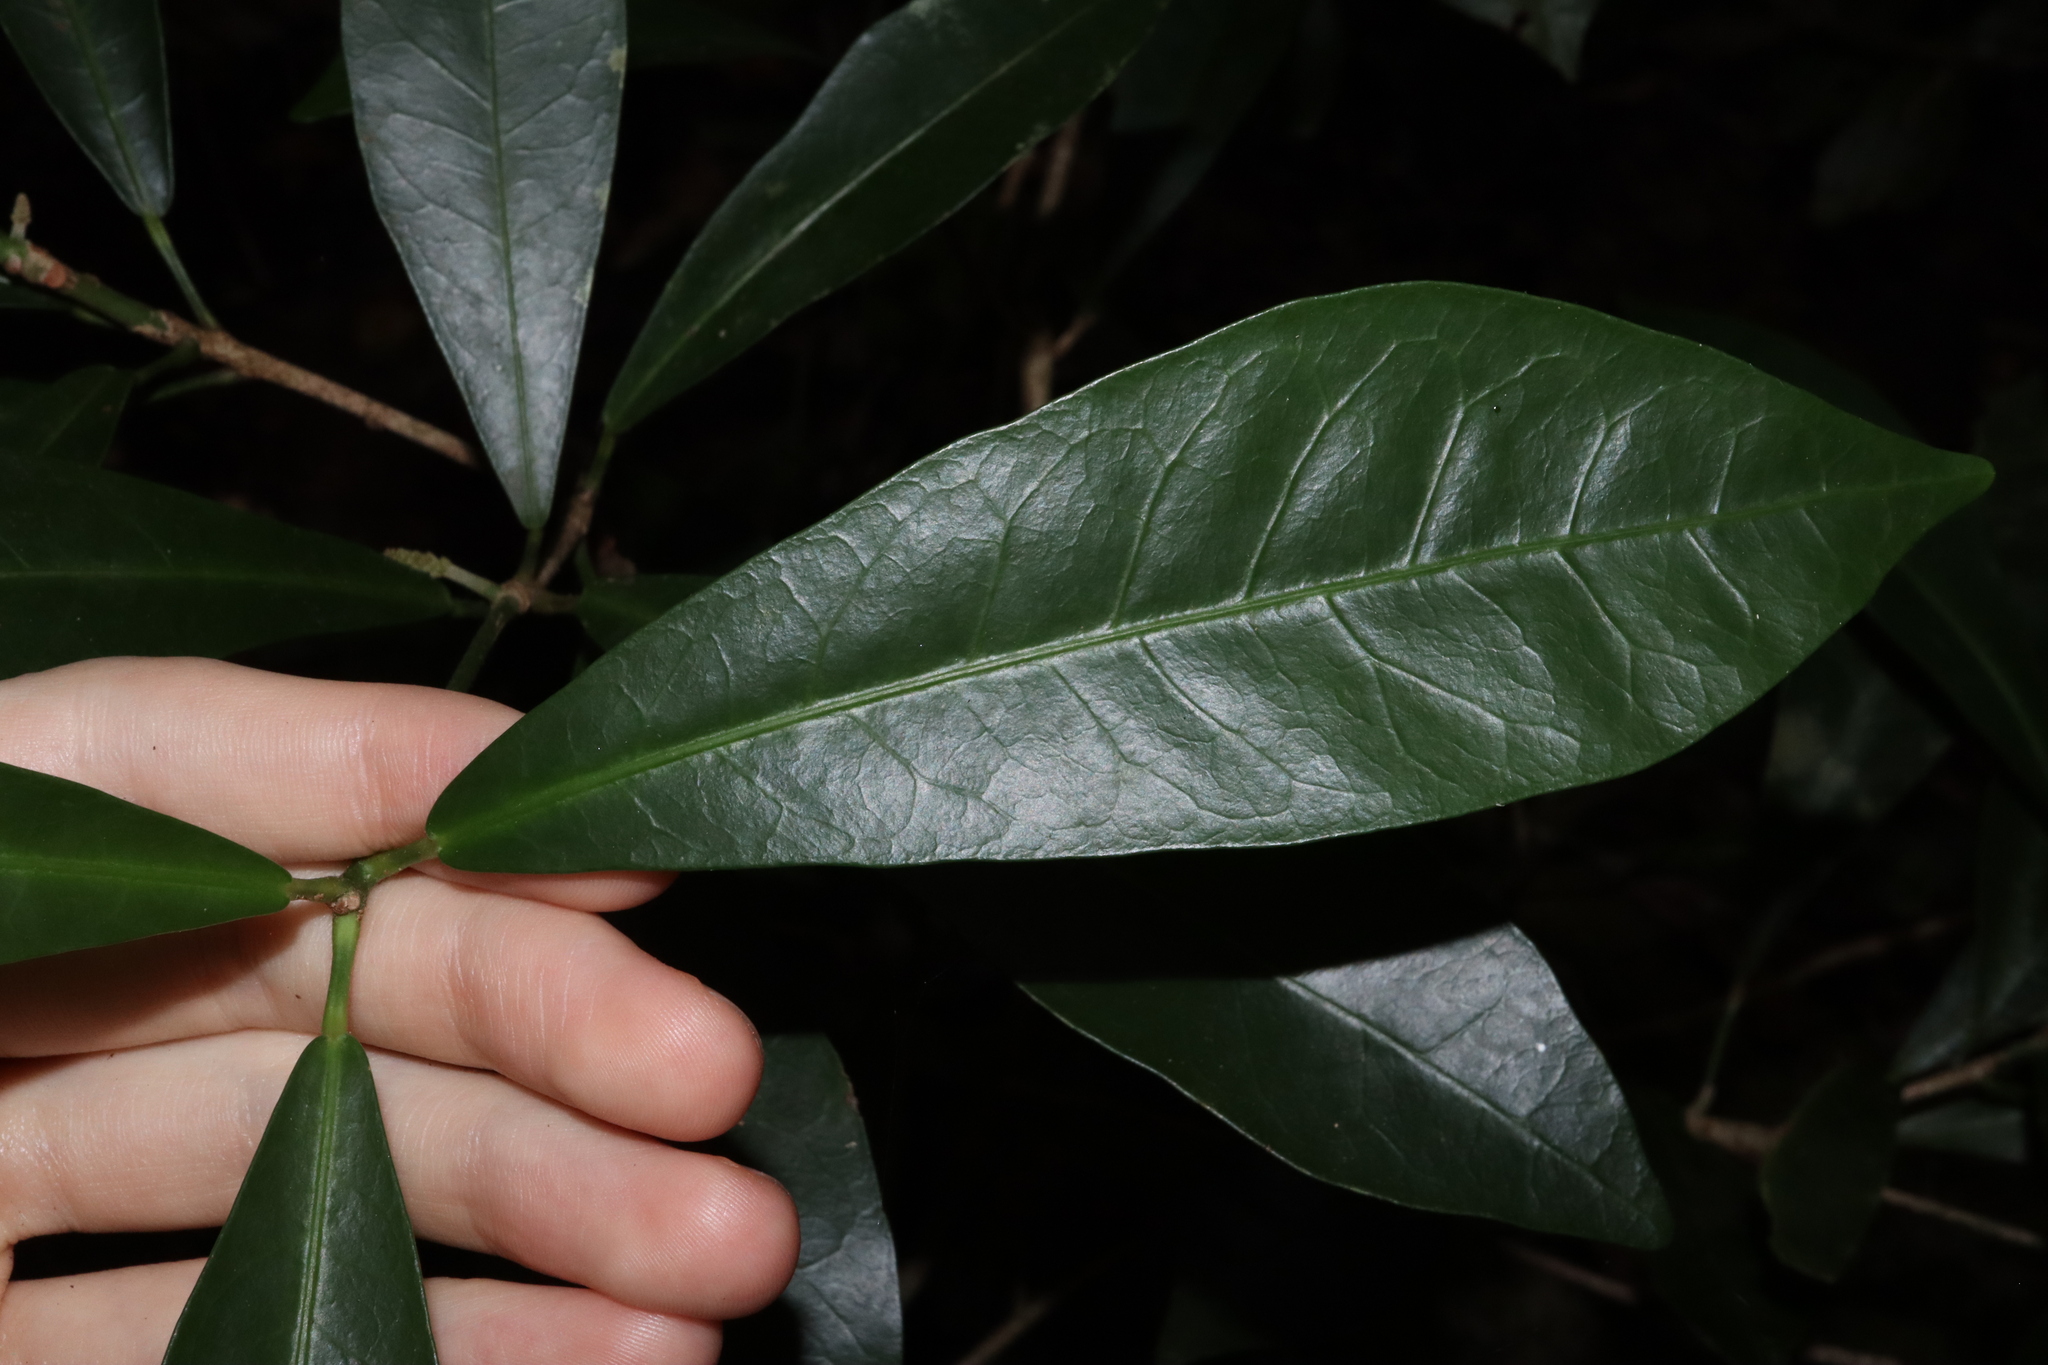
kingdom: Plantae
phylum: Tracheophyta
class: Magnoliopsida
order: Malpighiales
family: Euphorbiaceae
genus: Codiaeum
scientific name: Codiaeum variegatum
